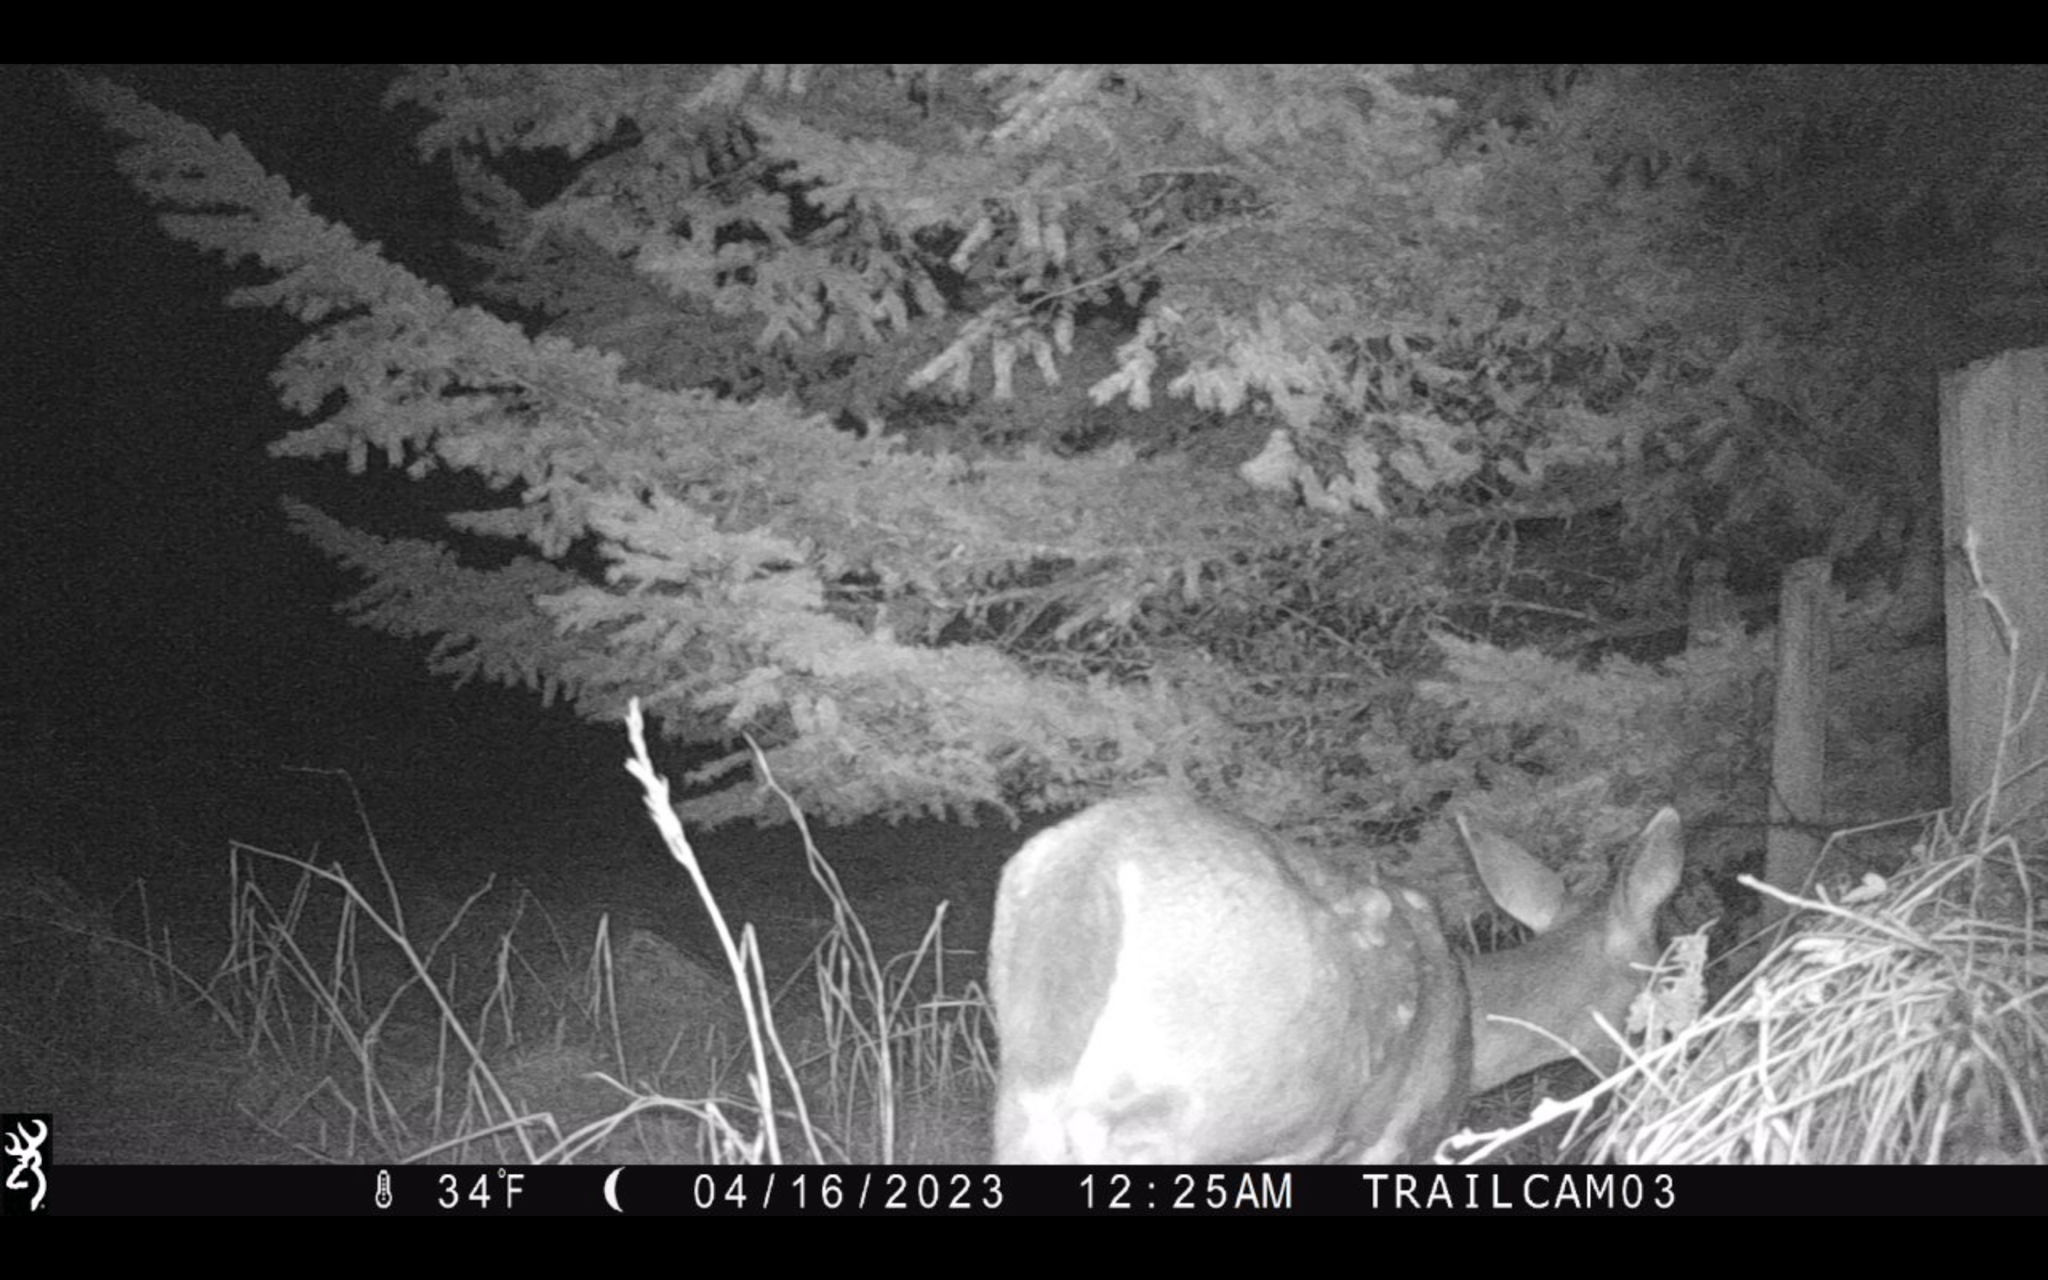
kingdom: Animalia
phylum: Chordata
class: Mammalia
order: Artiodactyla
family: Cervidae
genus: Odocoileus
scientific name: Odocoileus hemionus
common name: Mule deer
